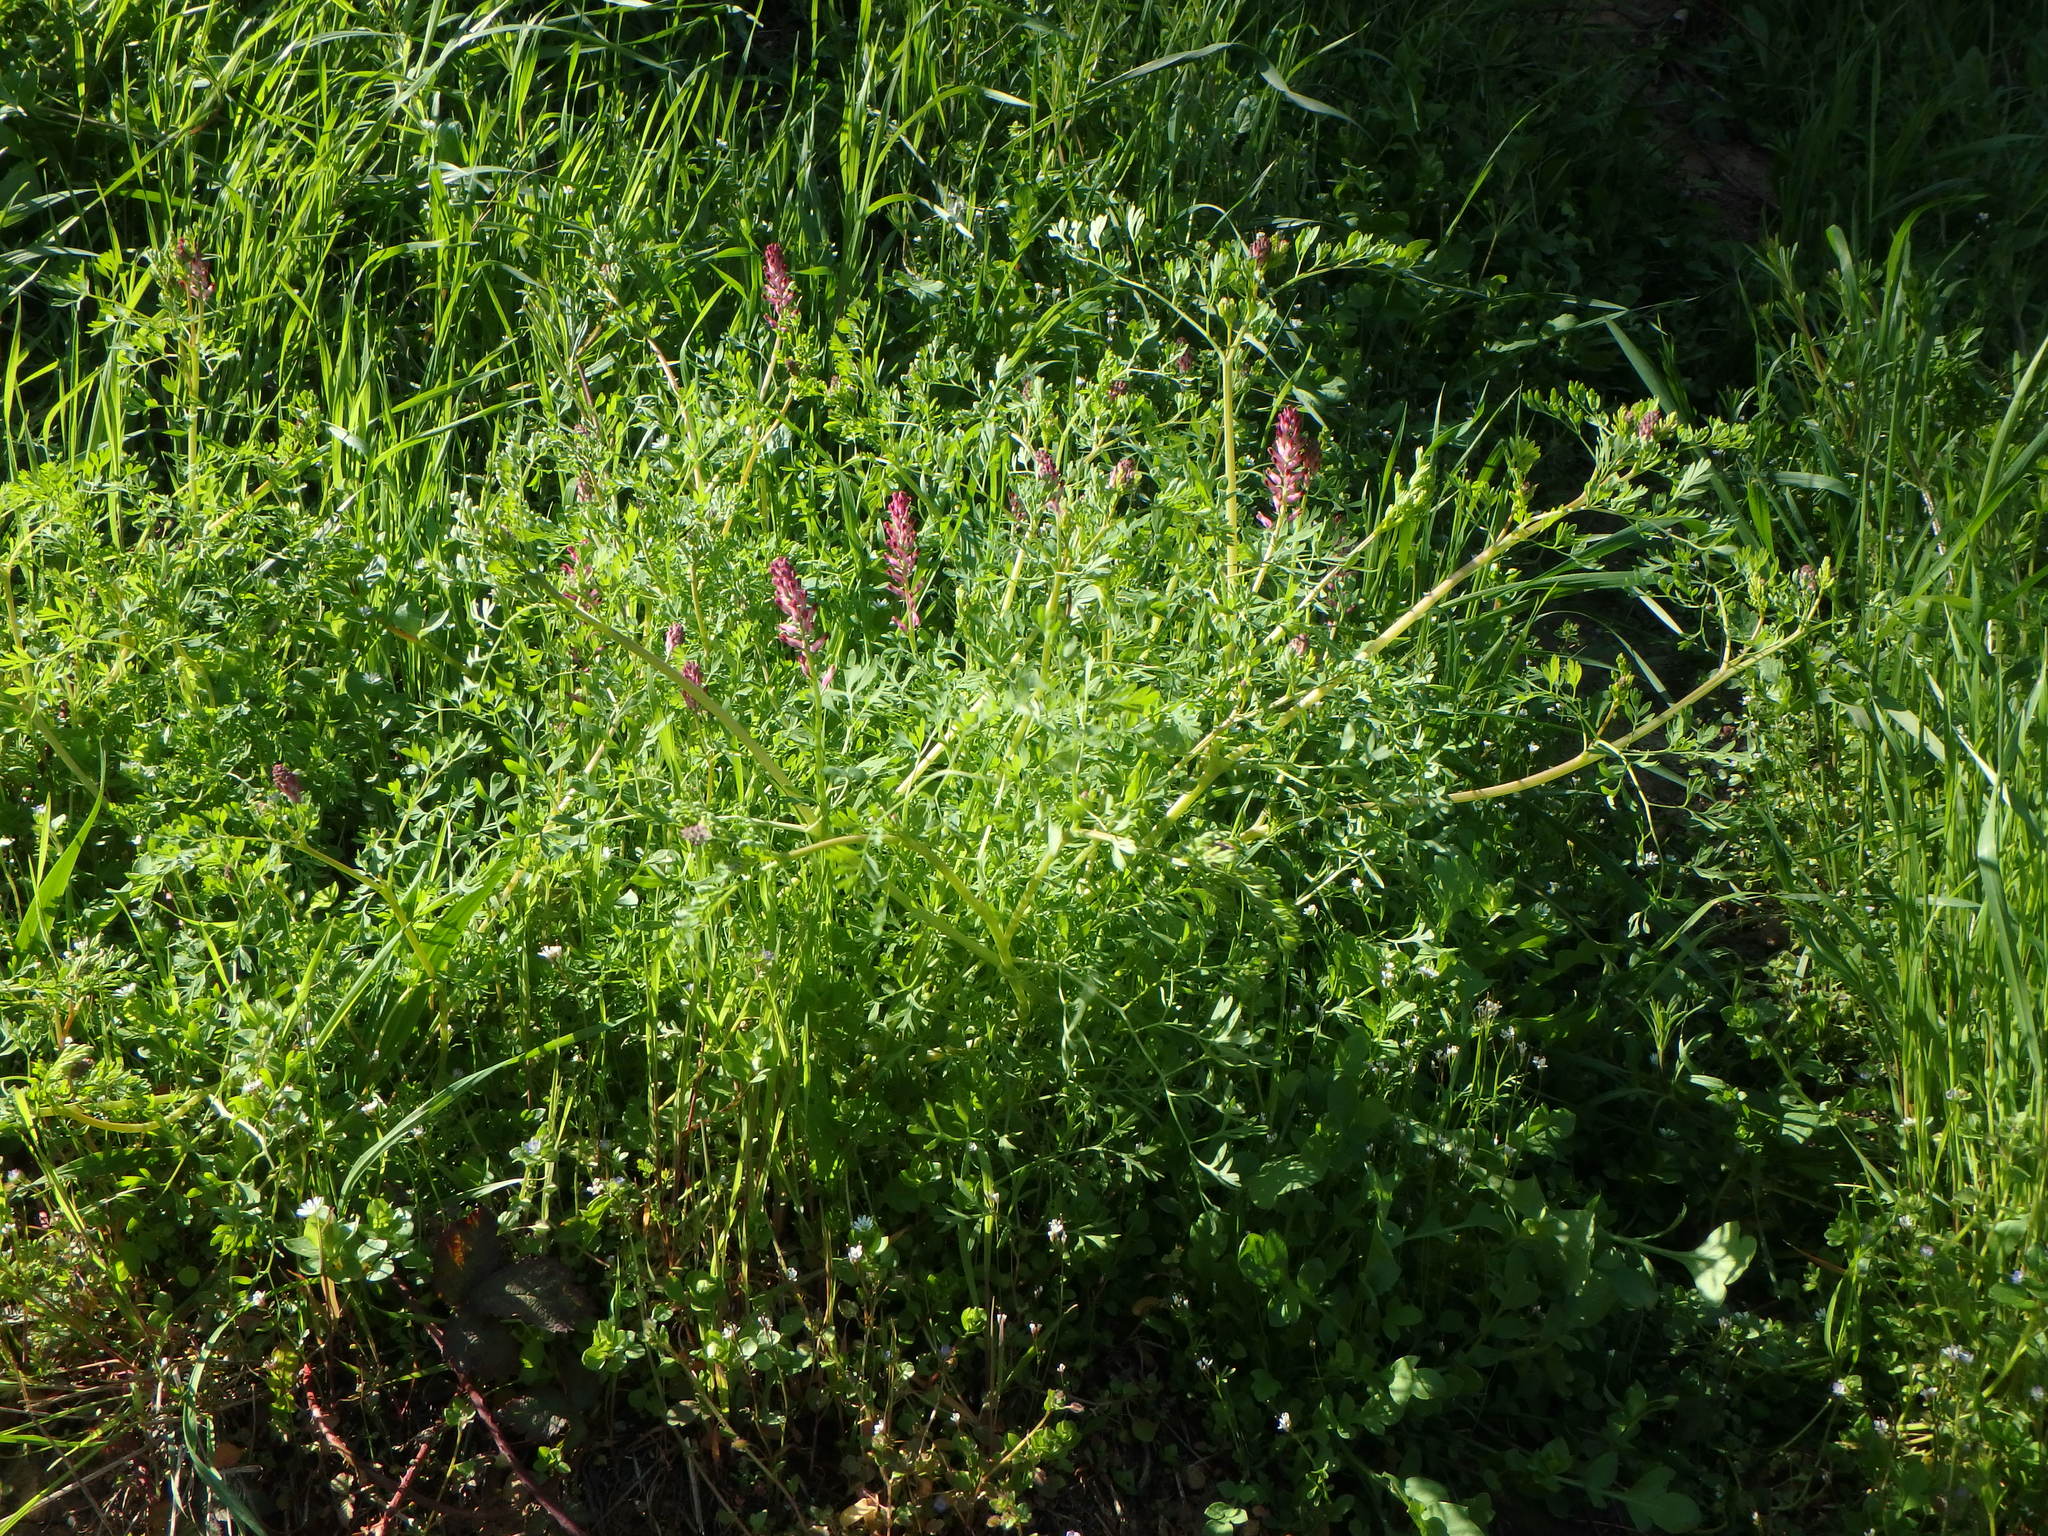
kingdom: Plantae
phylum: Tracheophyta
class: Magnoliopsida
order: Ranunculales
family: Papaveraceae
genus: Fumaria
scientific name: Fumaria officinalis
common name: Common fumitory
